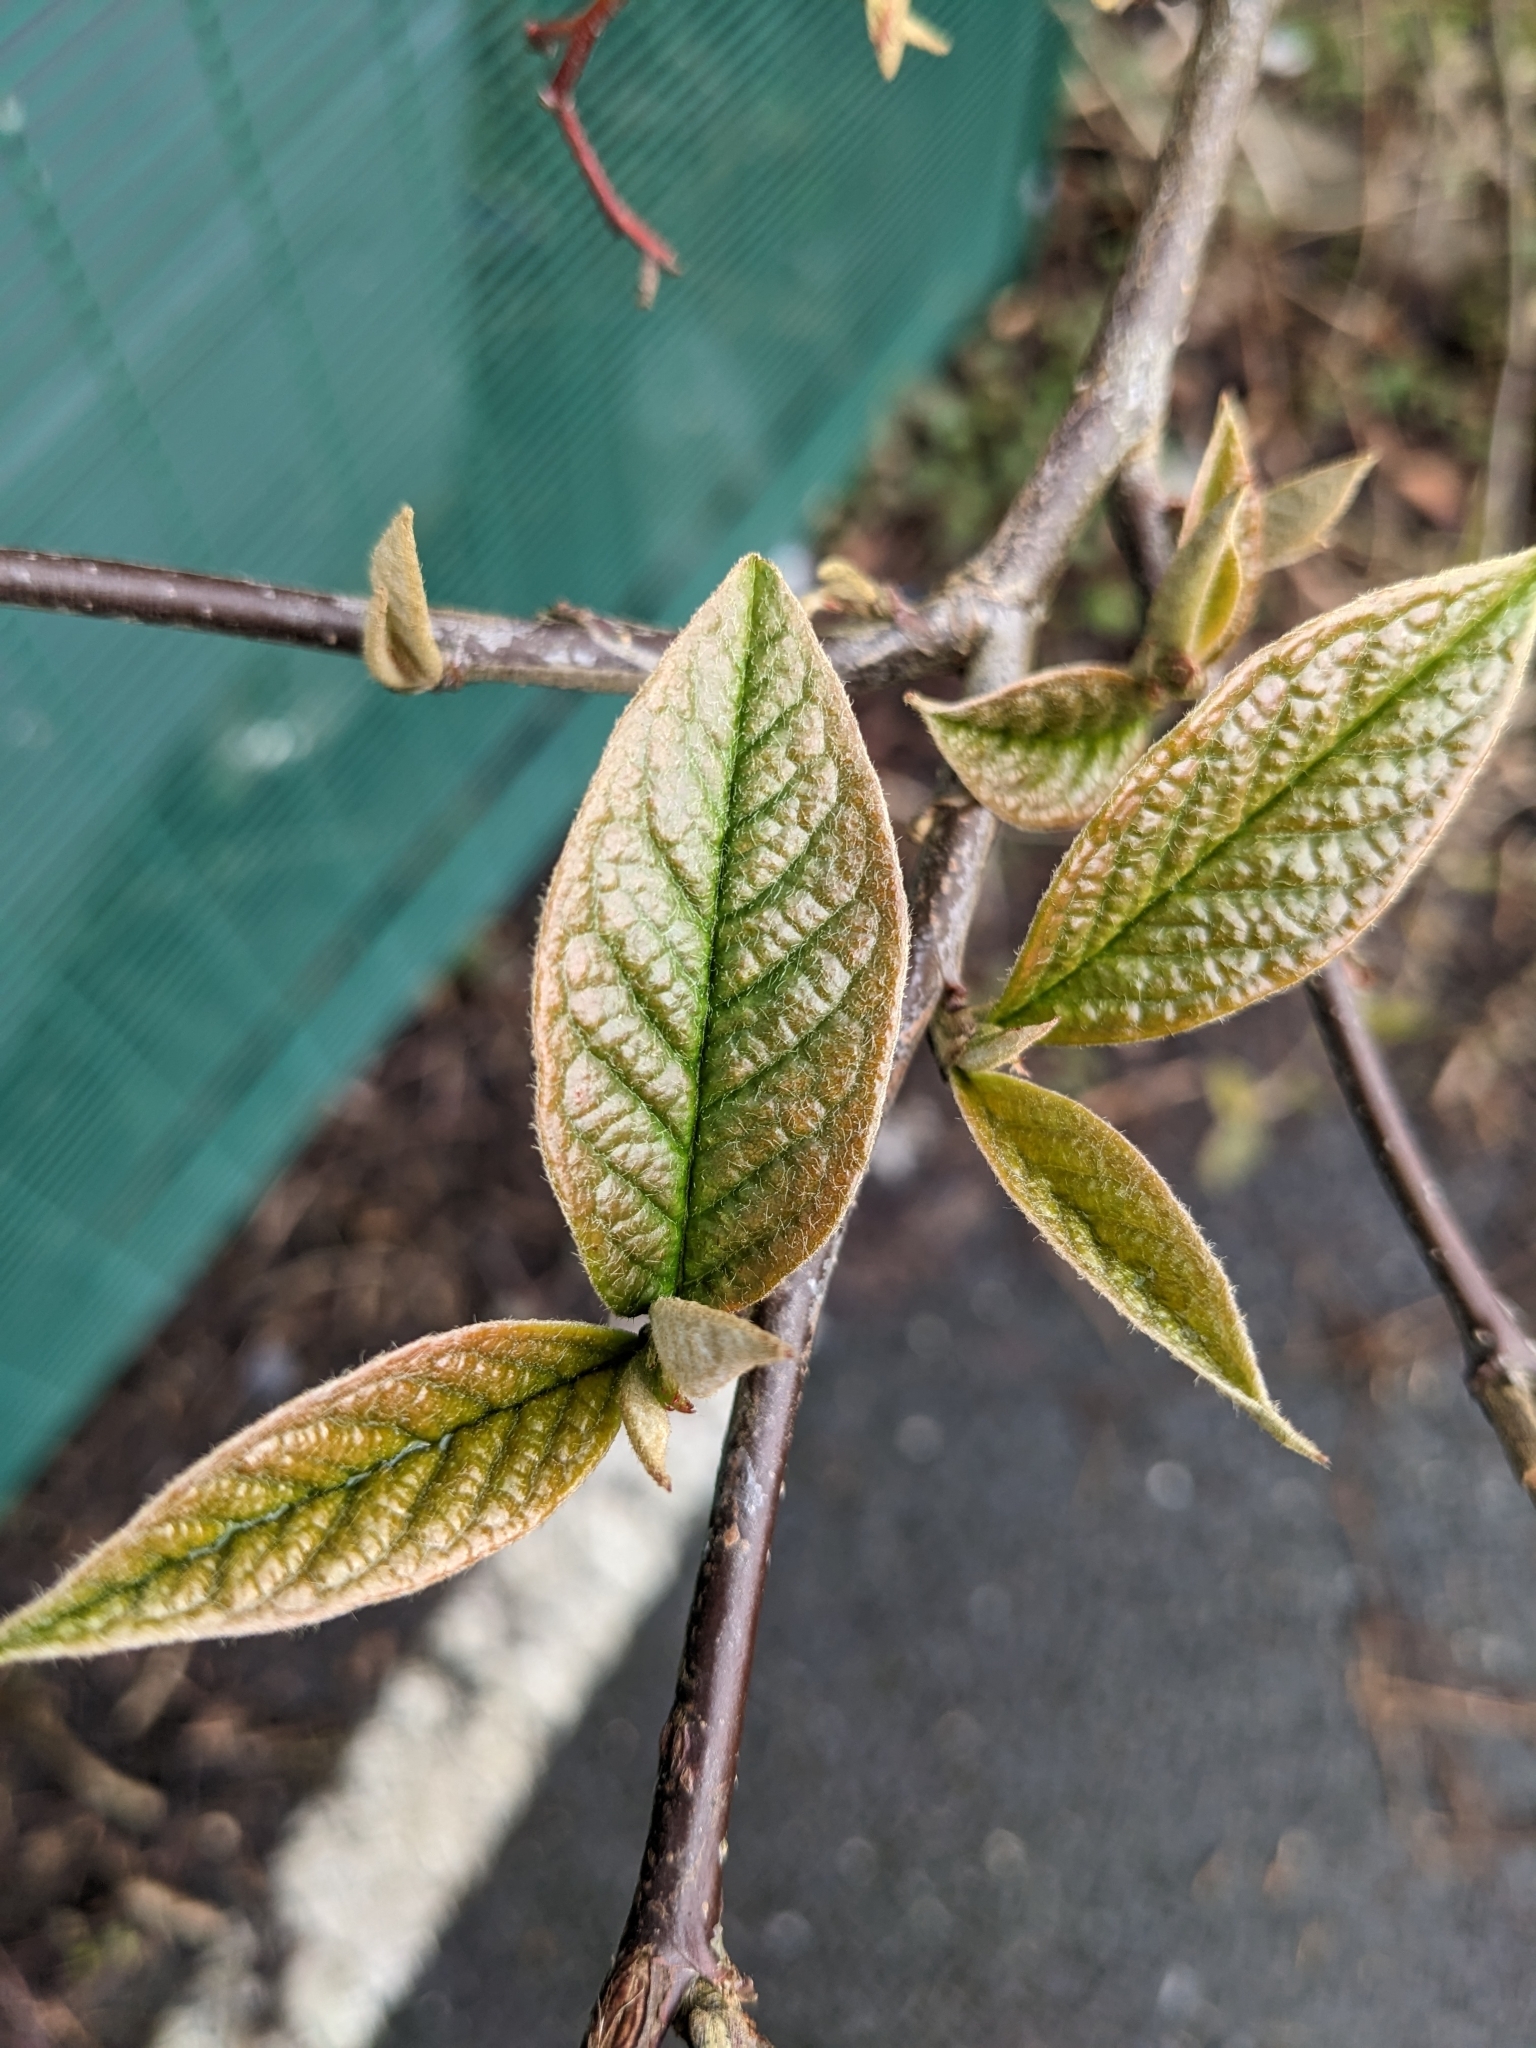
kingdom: Plantae
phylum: Tracheophyta
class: Magnoliopsida
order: Rosales
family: Rosaceae
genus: Cotoneaster
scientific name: Cotoneaster bullatus
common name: Hollyberry cotoneaster
